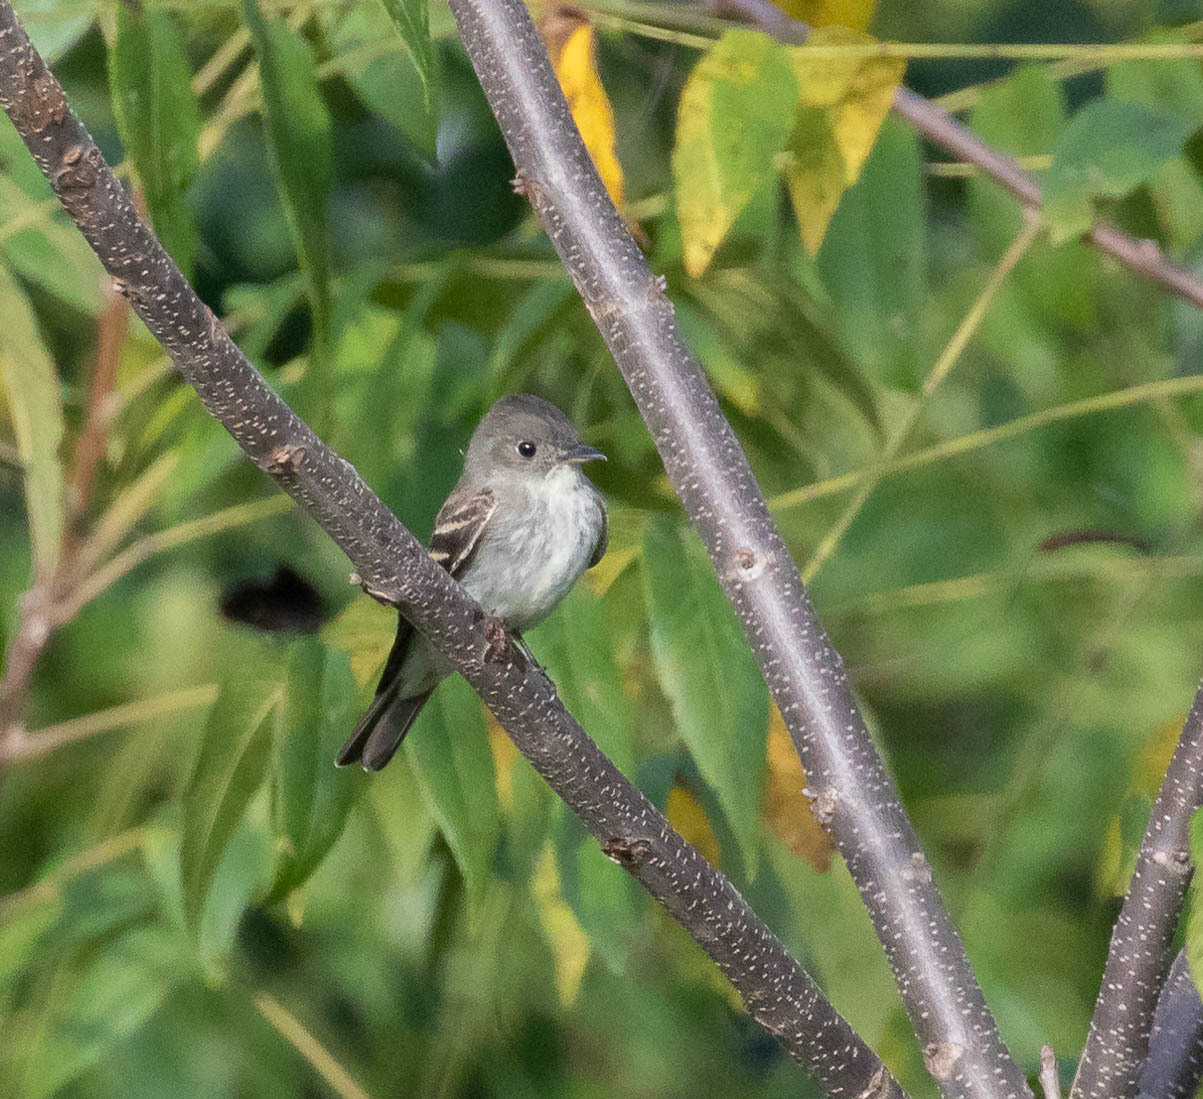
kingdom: Animalia
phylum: Chordata
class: Aves
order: Passeriformes
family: Tyrannidae
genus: Contopus
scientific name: Contopus virens
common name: Eastern wood-pewee
